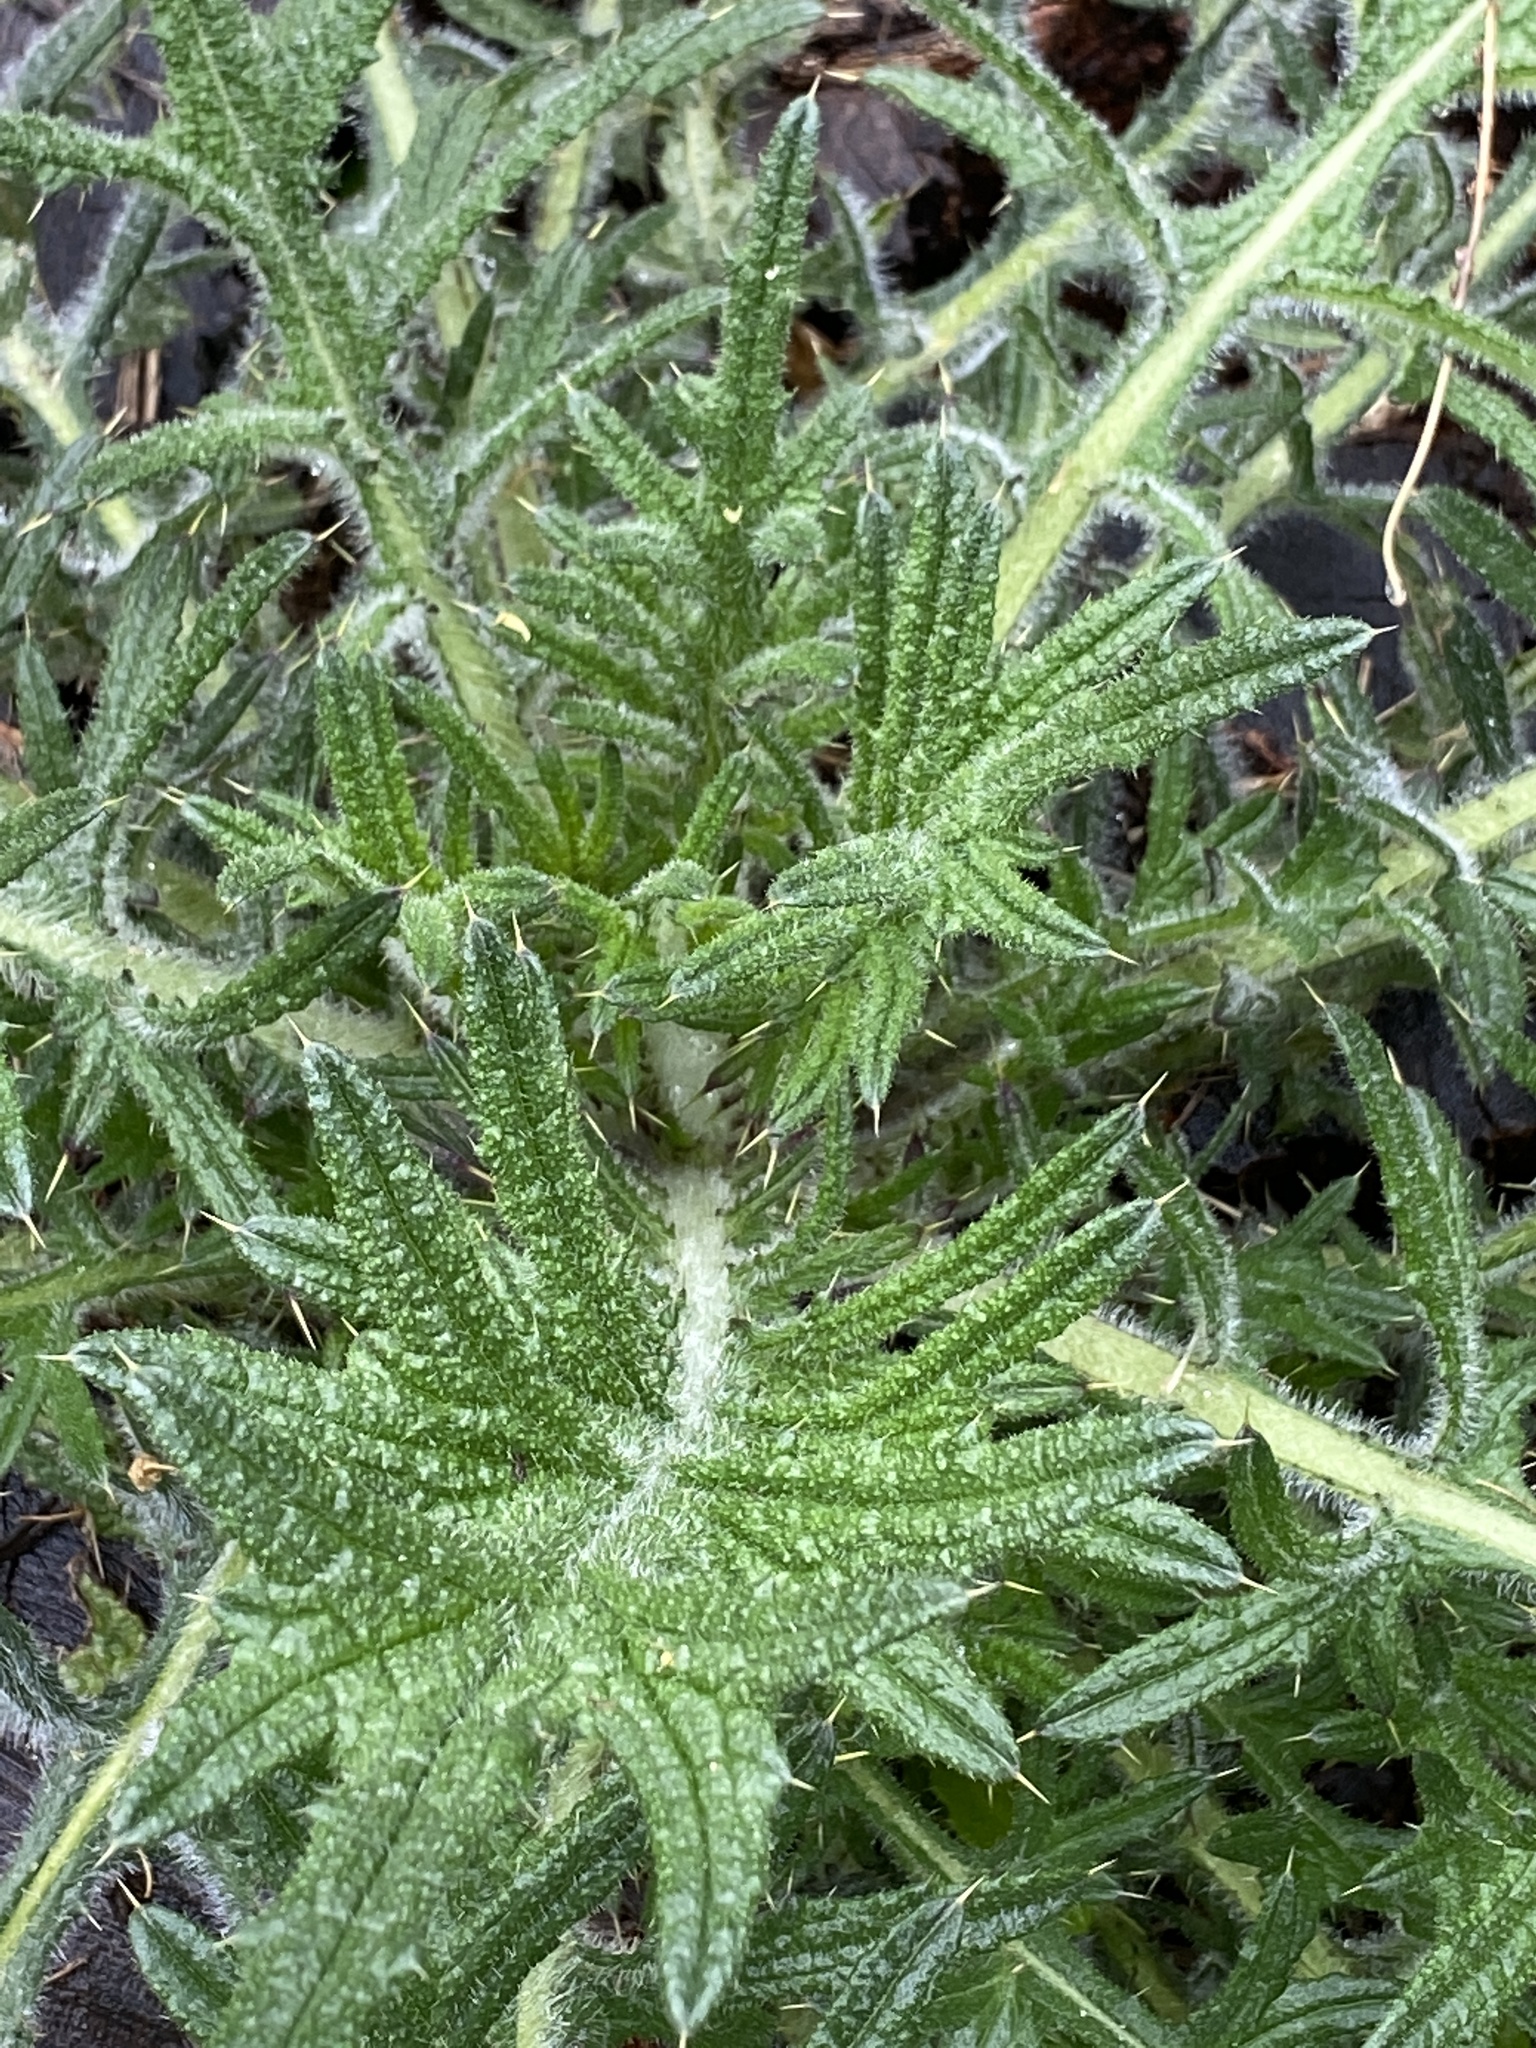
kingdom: Plantae
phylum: Tracheophyta
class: Magnoliopsida
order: Asterales
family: Asteraceae
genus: Cirsium
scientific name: Cirsium vulgare
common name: Bull thistle
